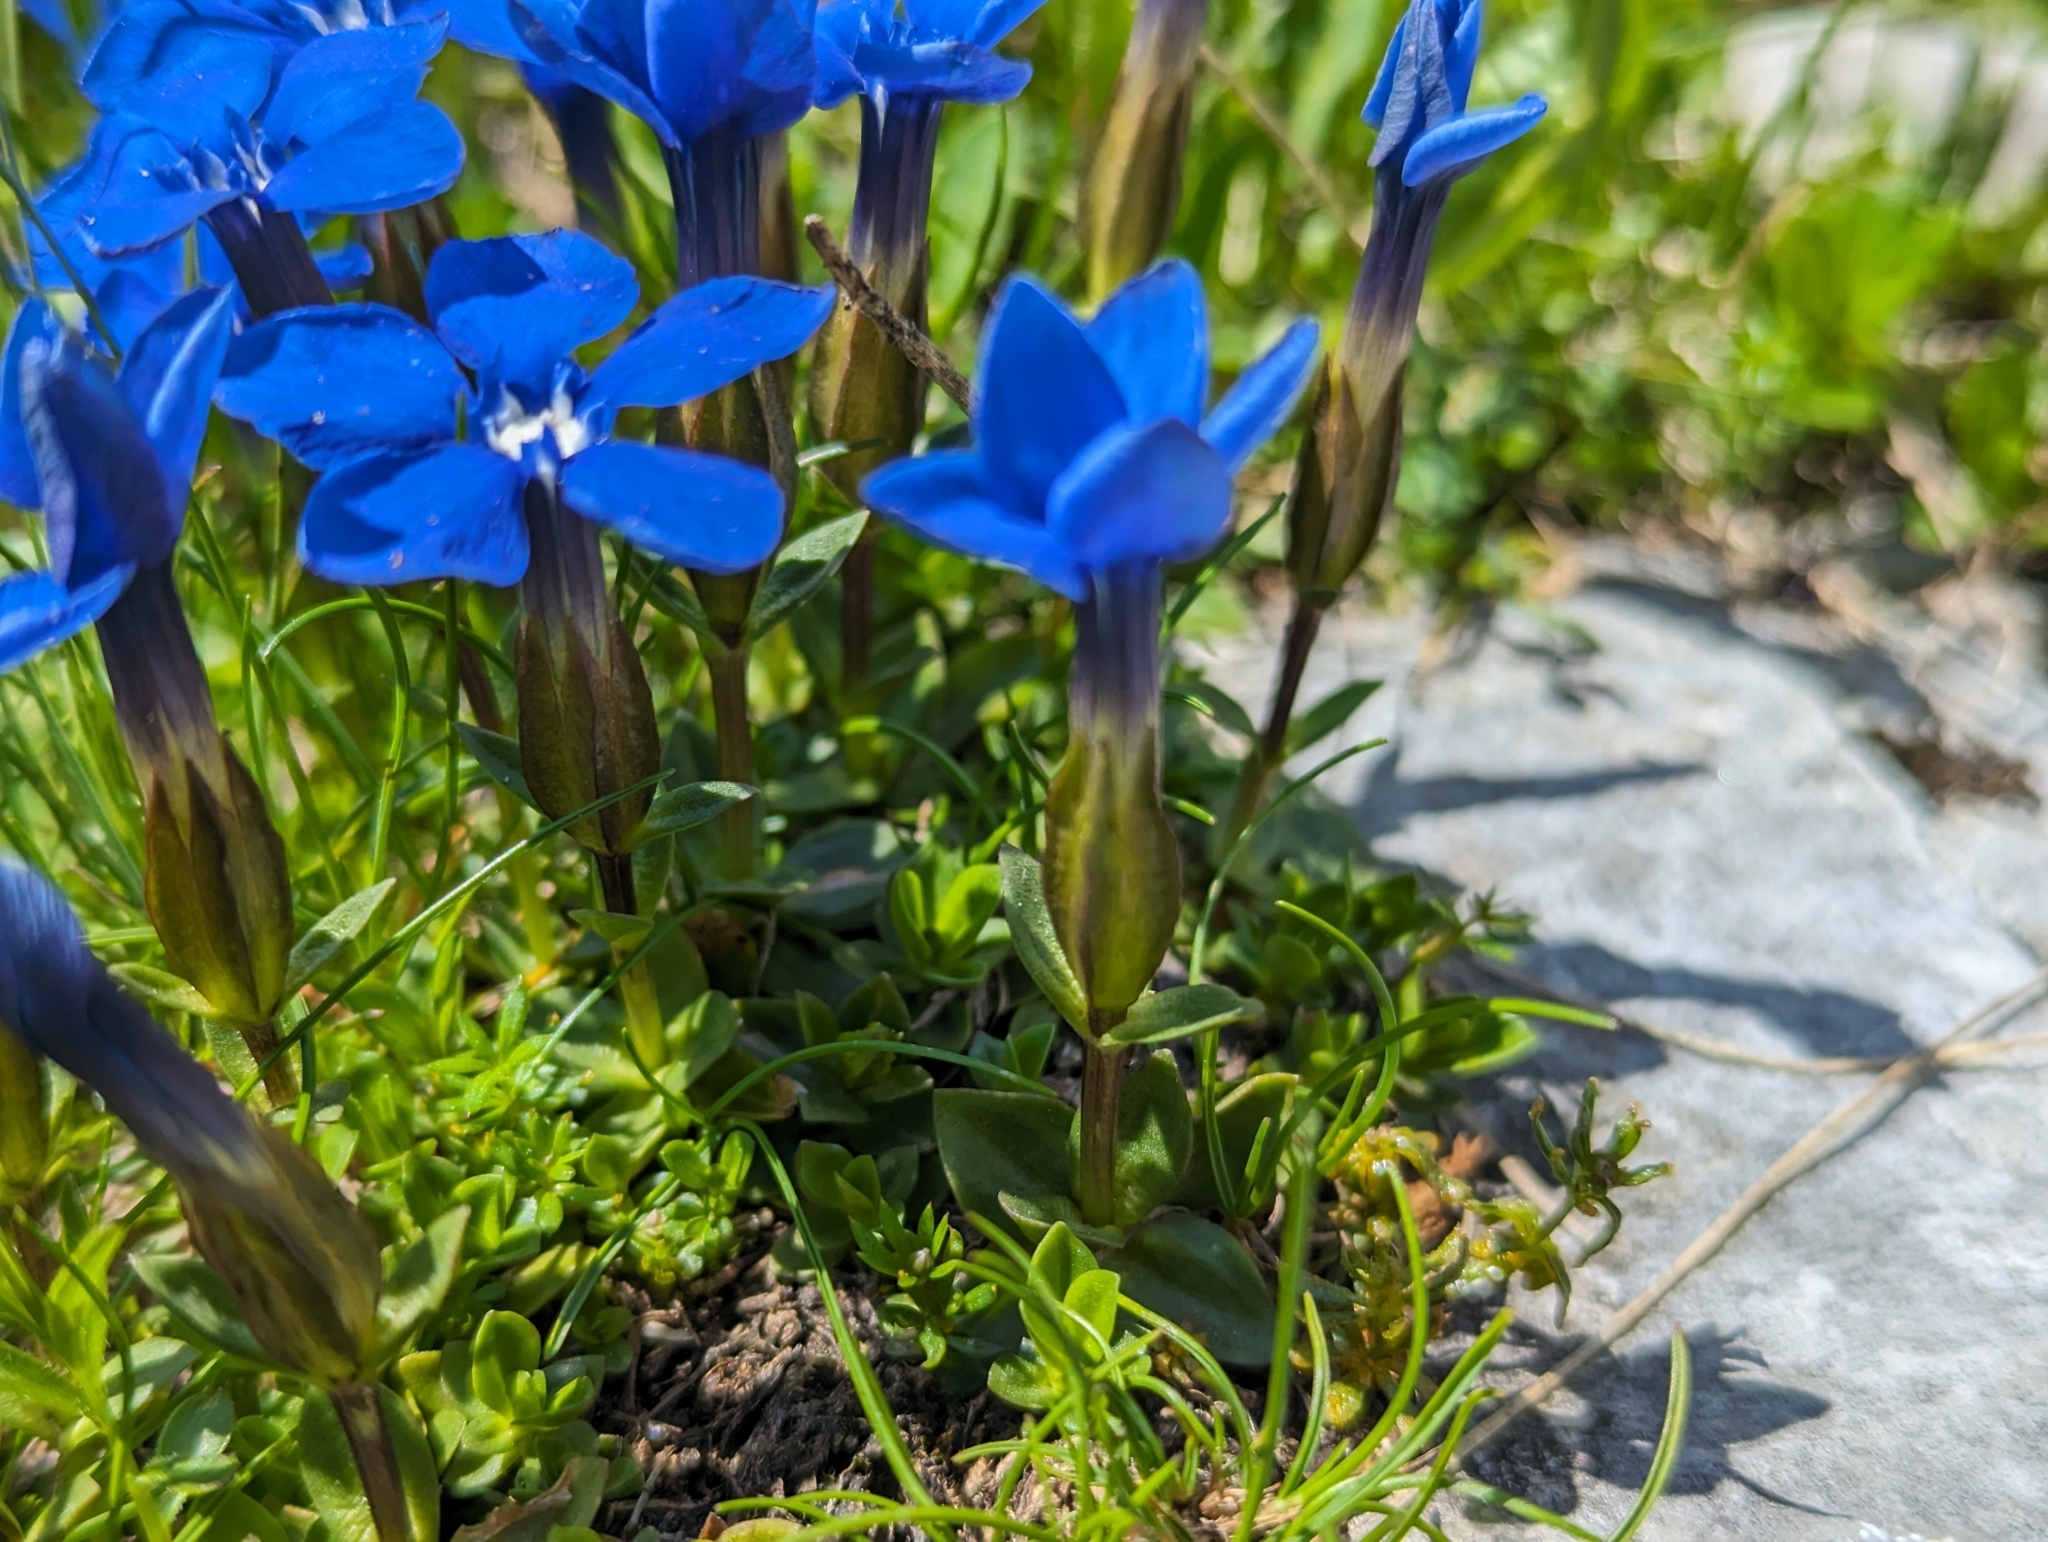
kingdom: Plantae
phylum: Tracheophyta
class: Magnoliopsida
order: Gentianales
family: Gentianaceae
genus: Gentiana
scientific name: Gentiana verna
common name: Spring gentian
